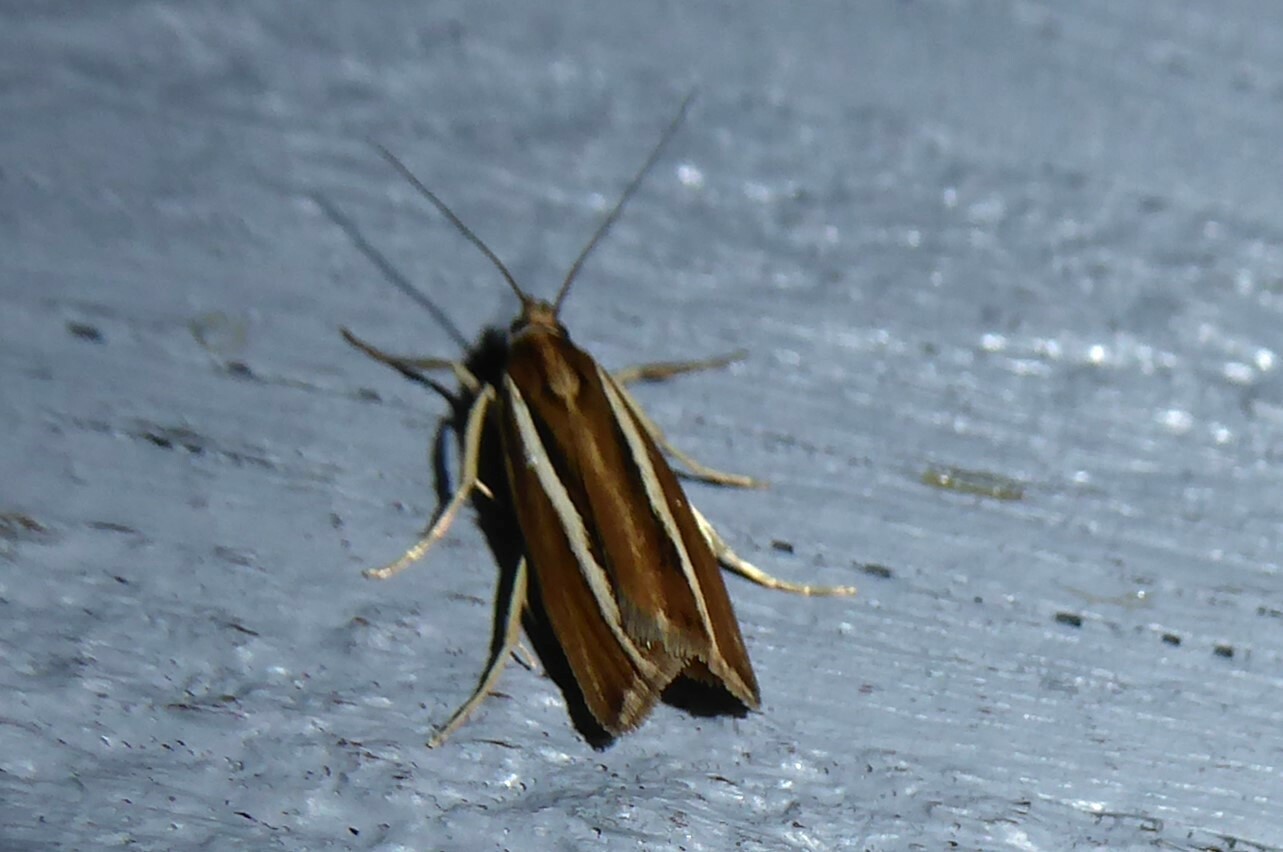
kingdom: Animalia
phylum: Arthropoda
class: Insecta
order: Lepidoptera
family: Crambidae
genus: Orocrambus
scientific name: Orocrambus aethonellus
